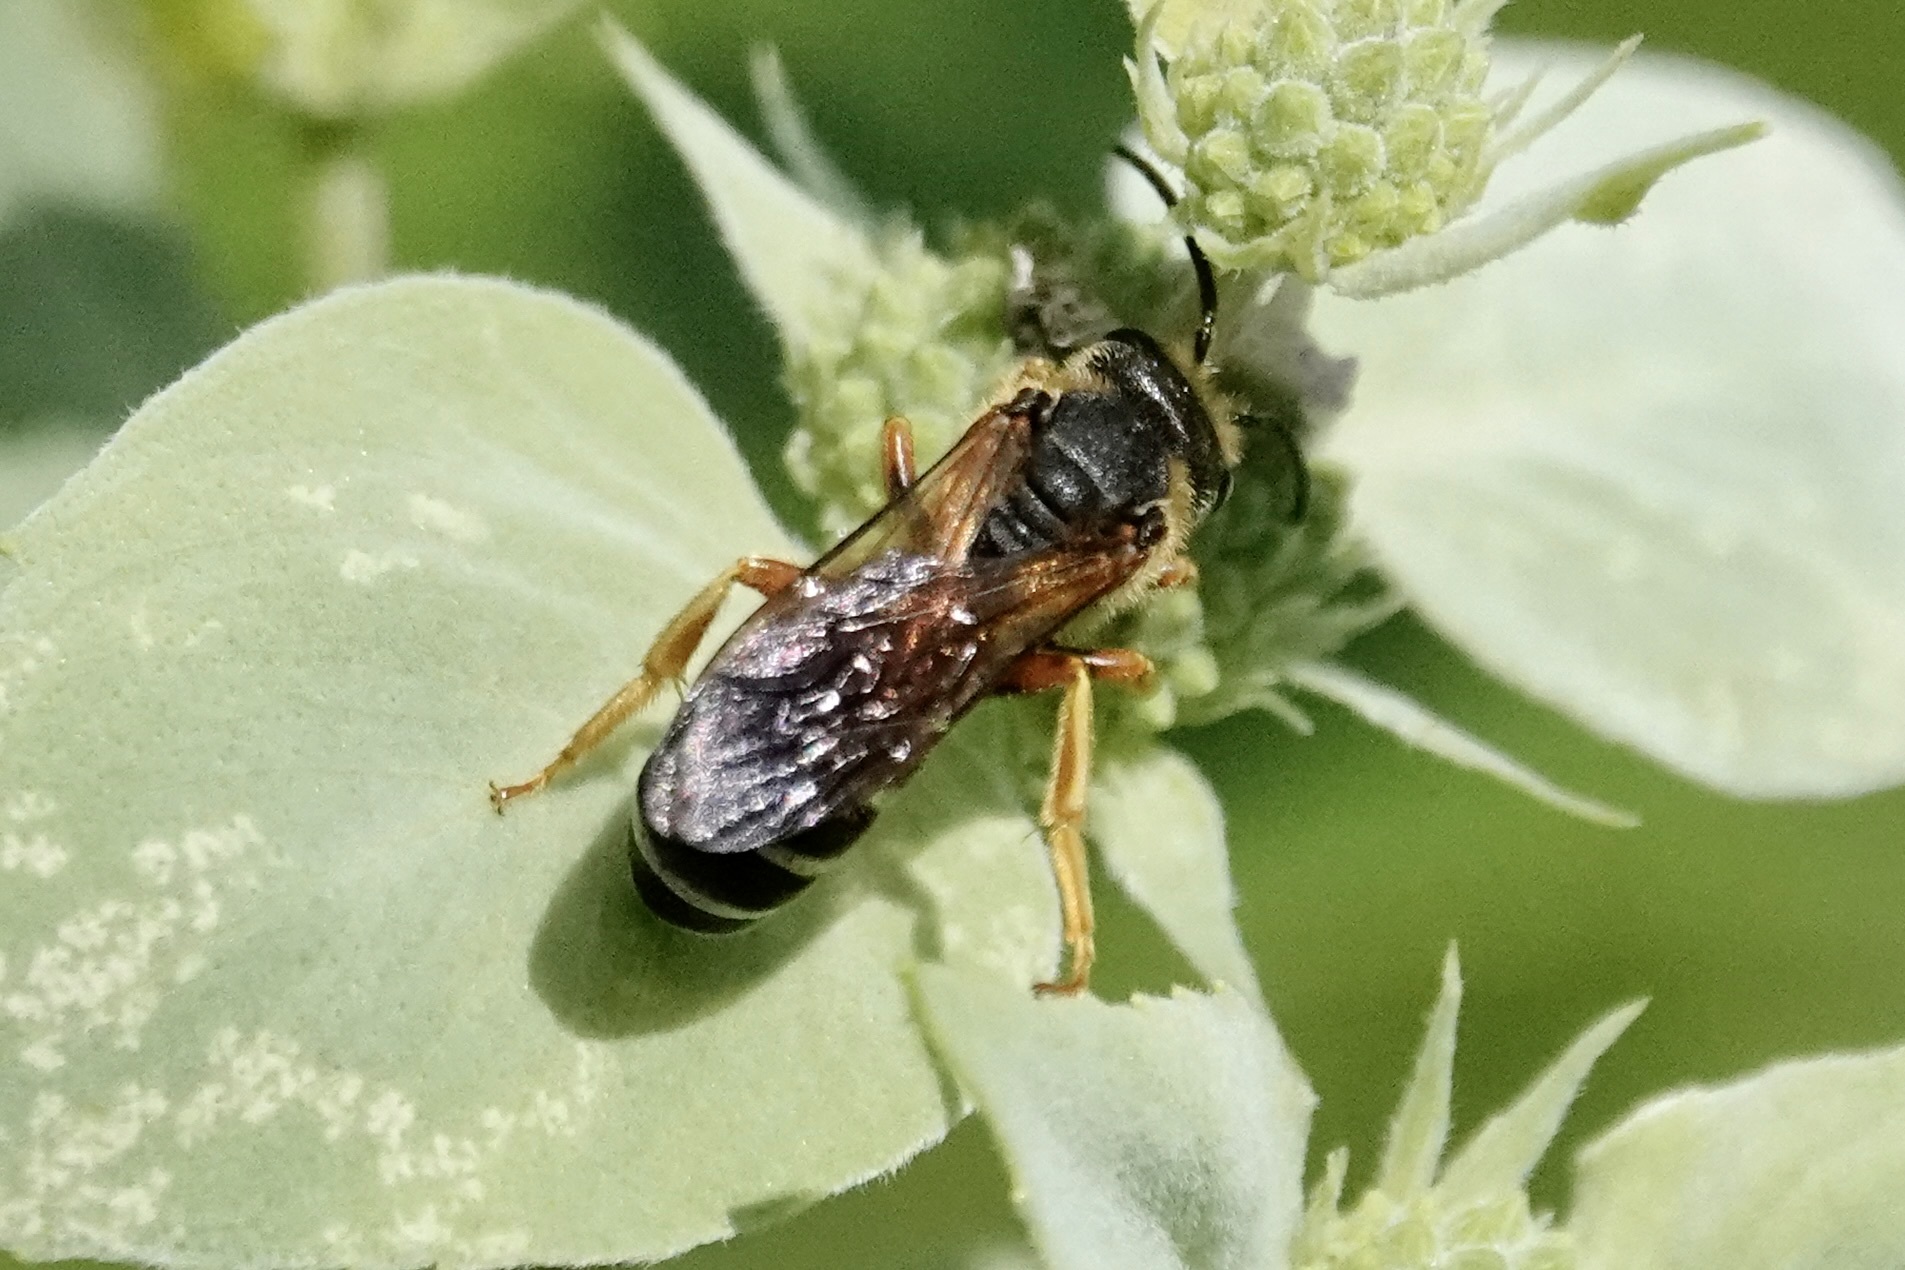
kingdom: Animalia
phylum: Arthropoda
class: Insecta
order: Hymenoptera
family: Halictidae
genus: Halictus
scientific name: Halictus parallelus
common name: Parallel-striped sweat bee
